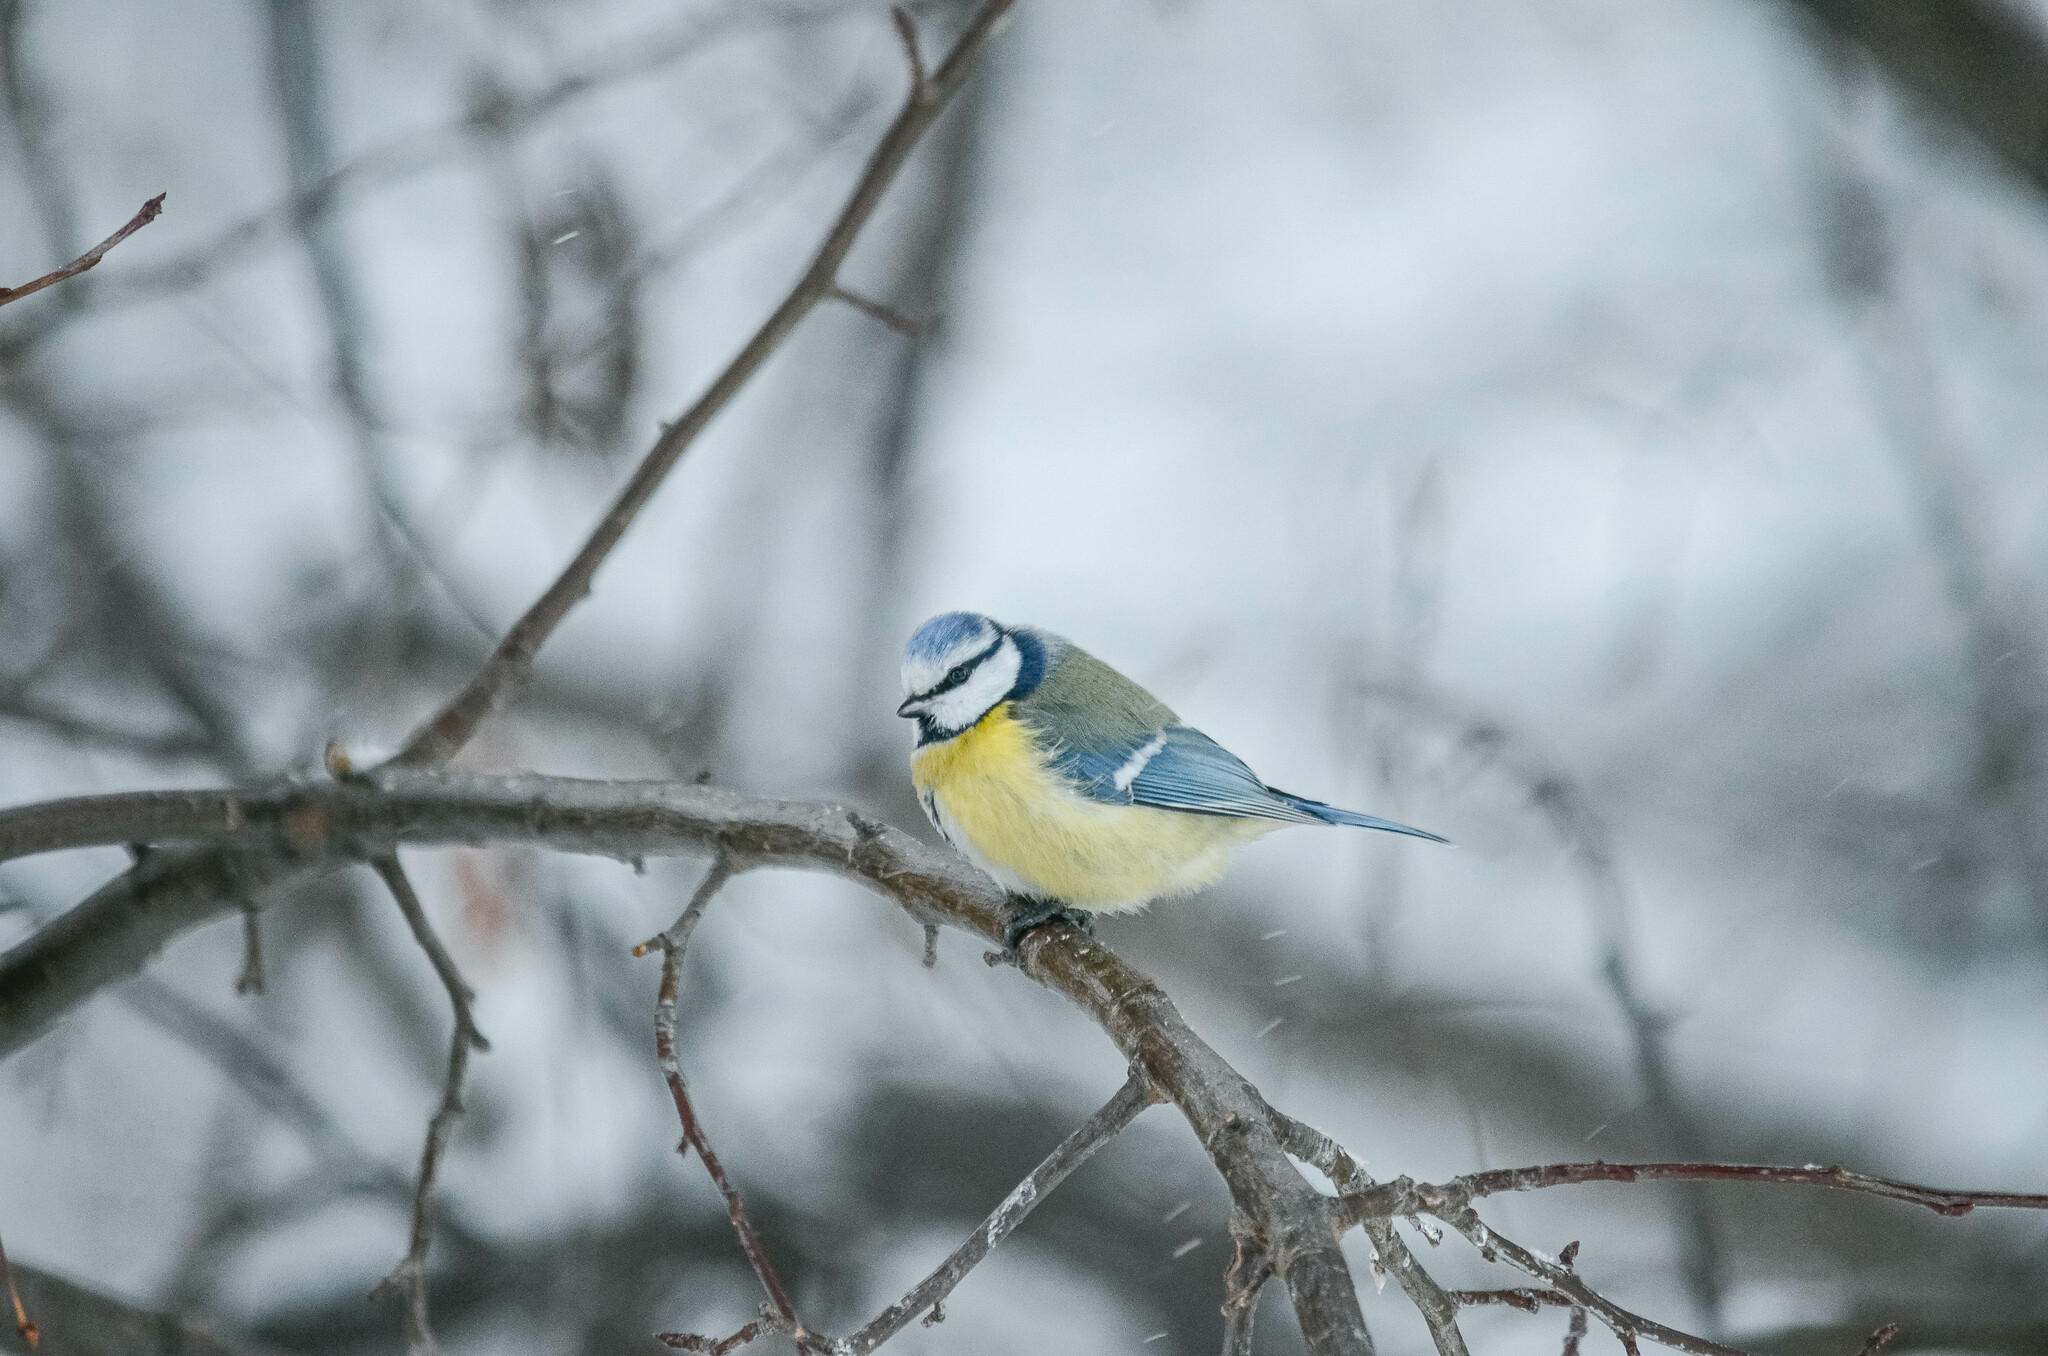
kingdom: Animalia
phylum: Chordata
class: Aves
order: Passeriformes
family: Paridae
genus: Cyanistes
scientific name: Cyanistes caeruleus
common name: Eurasian blue tit
